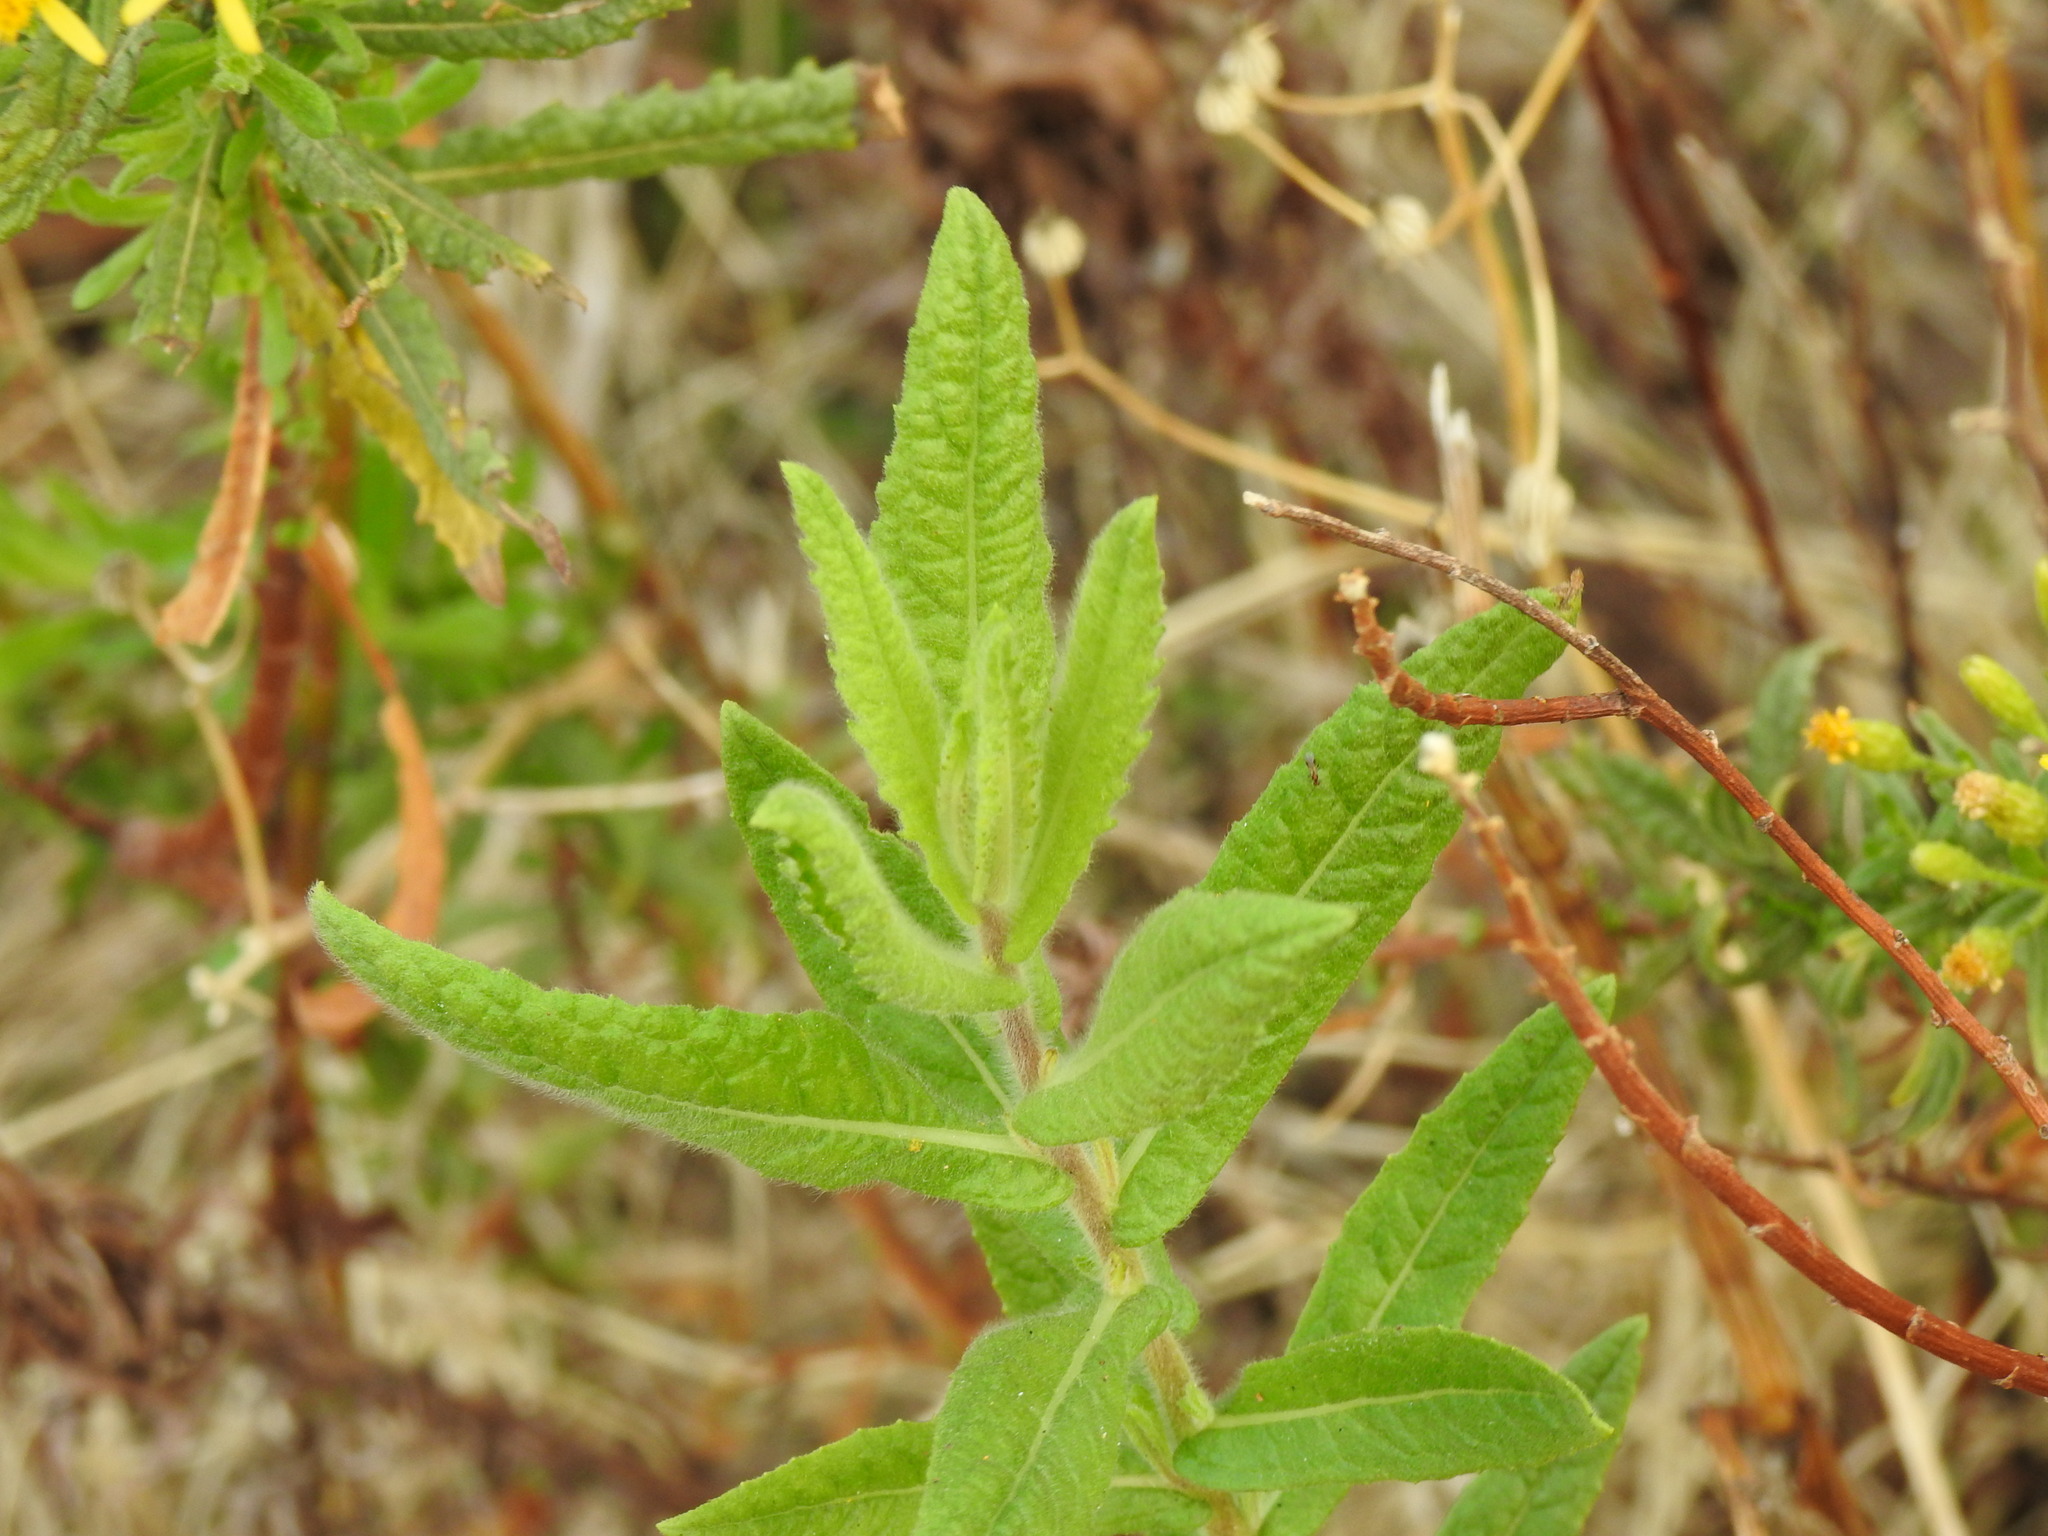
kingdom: Plantae
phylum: Tracheophyta
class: Magnoliopsida
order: Asterales
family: Asteraceae
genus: Dittrichia
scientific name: Dittrichia viscosa
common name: Woody fleabane
